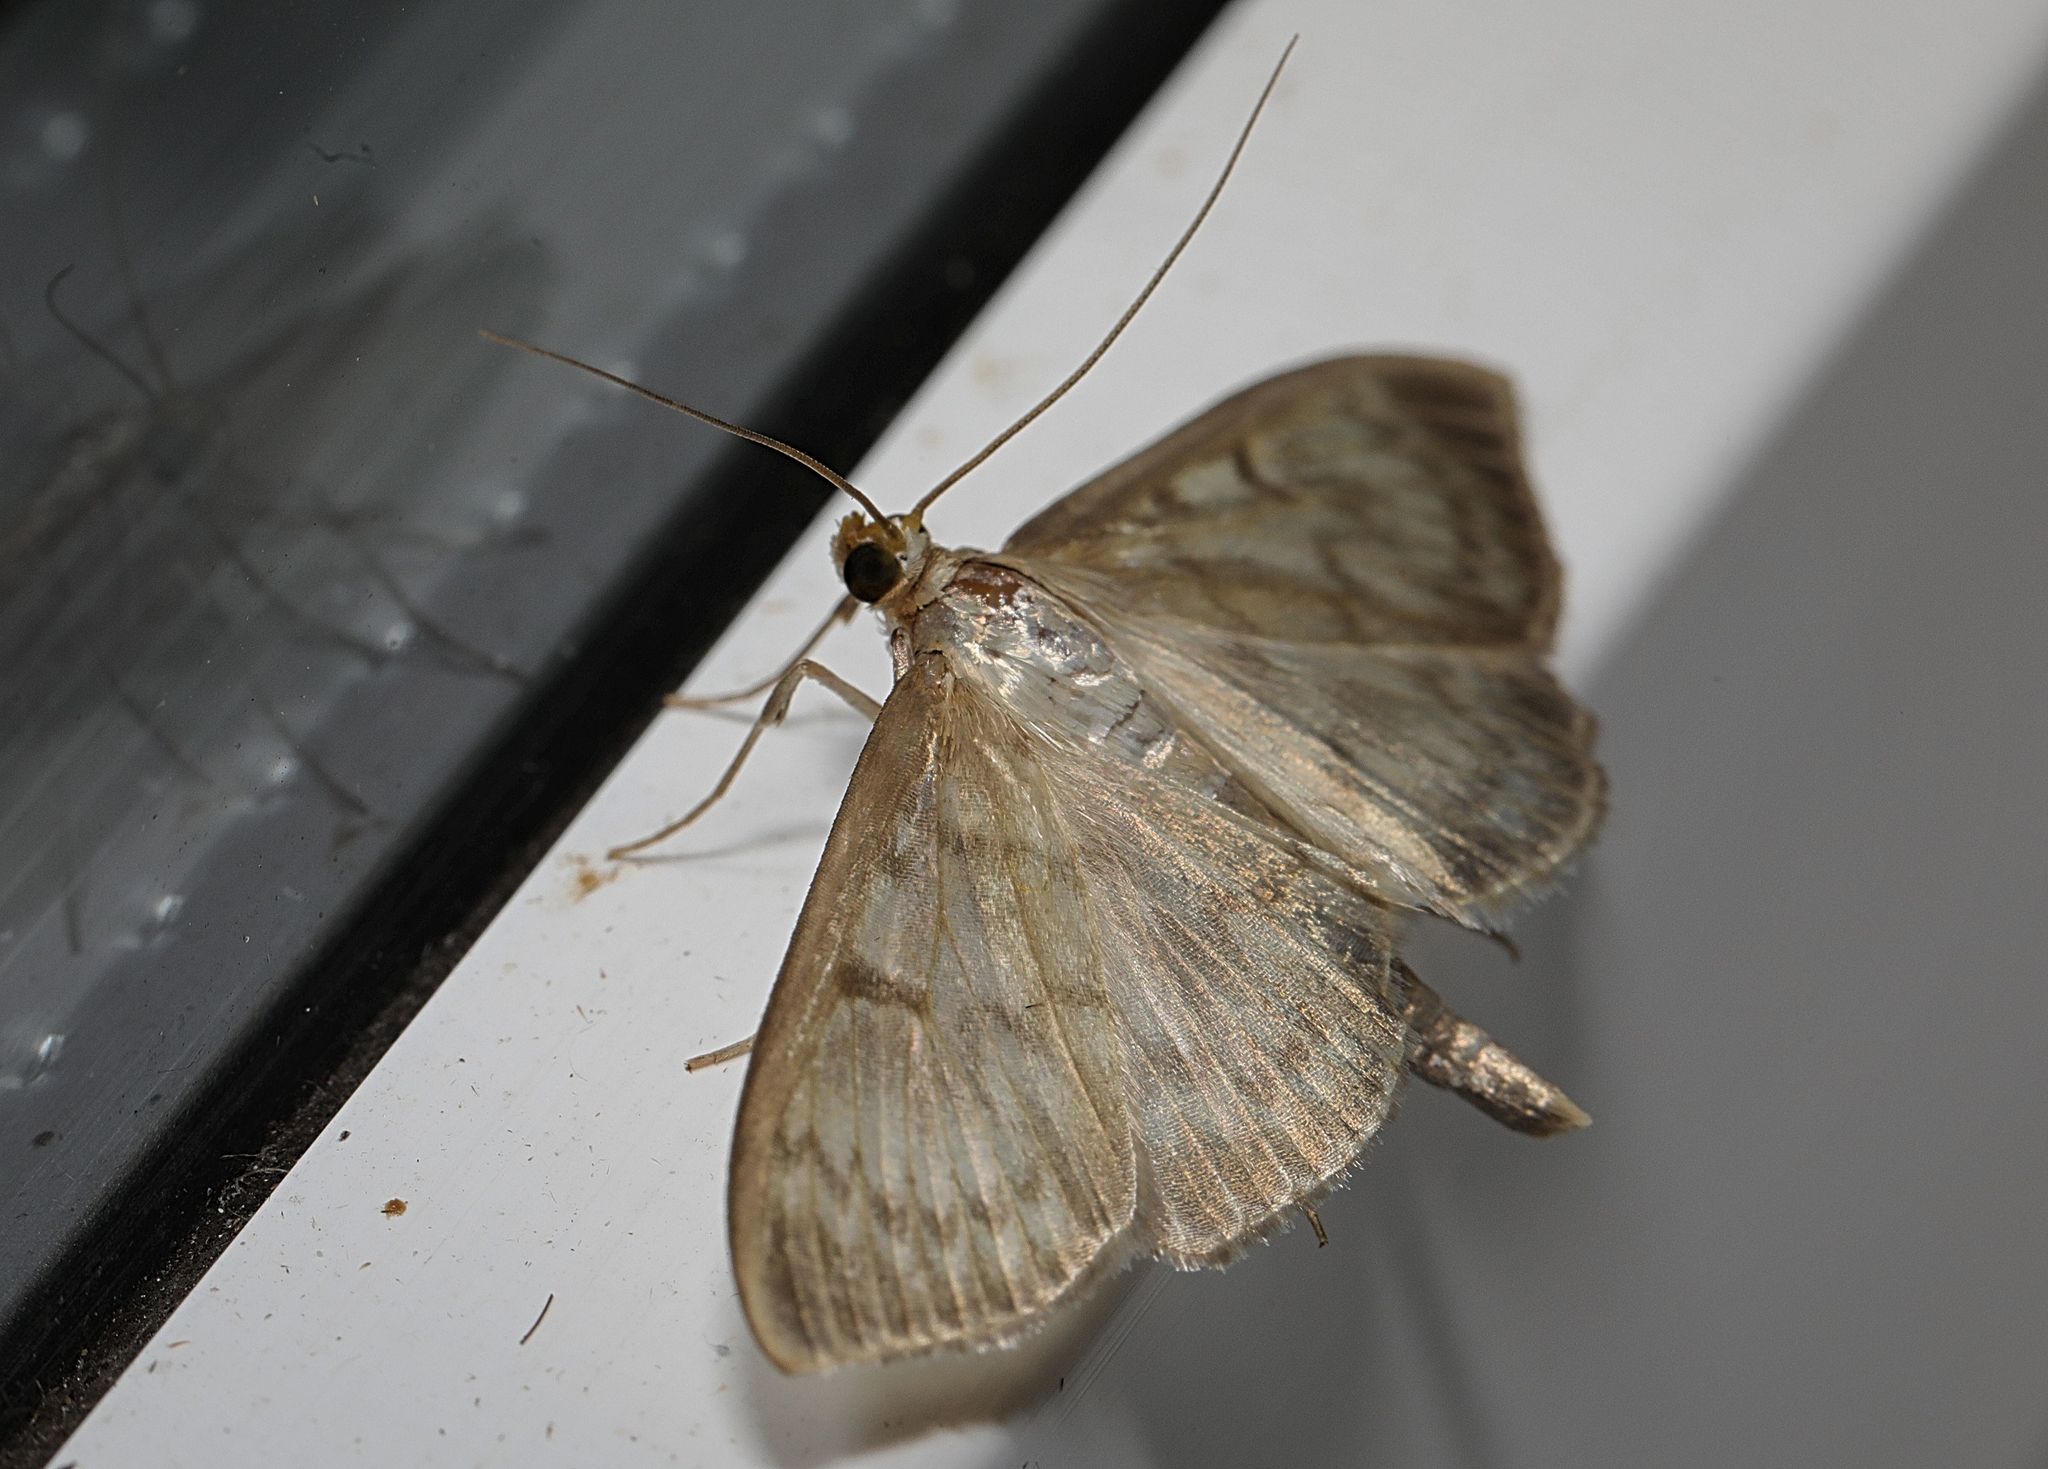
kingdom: Animalia
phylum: Arthropoda
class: Insecta
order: Lepidoptera
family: Crambidae
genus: Patania
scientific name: Patania ruralis
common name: Mother of pearl
